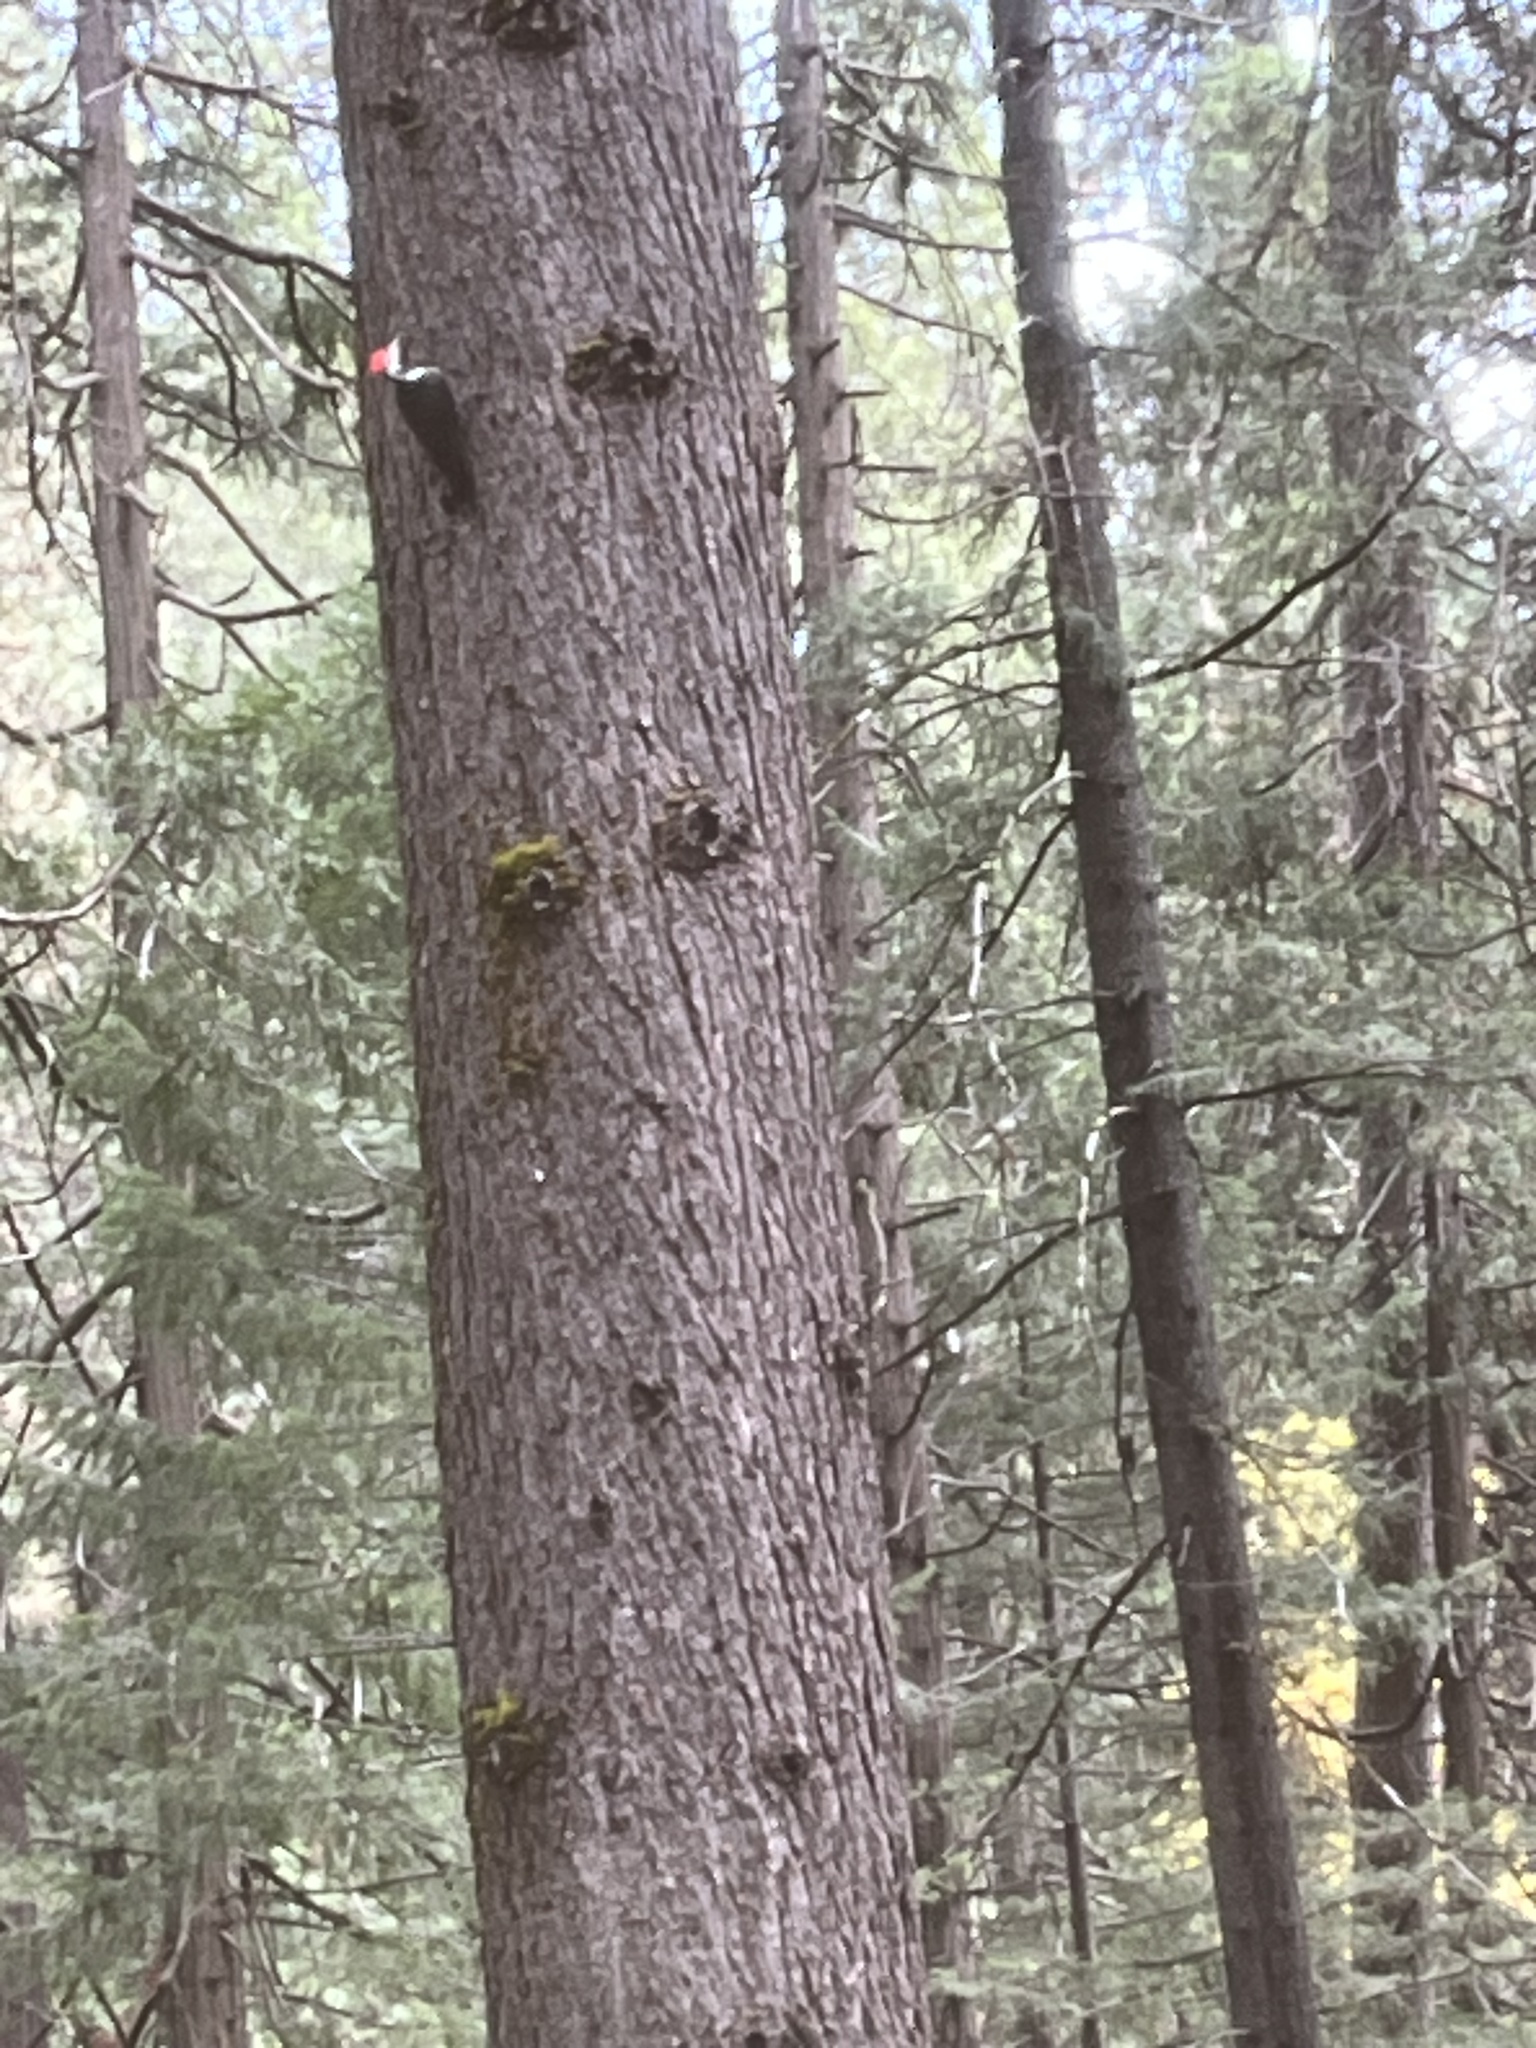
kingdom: Animalia
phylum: Chordata
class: Aves
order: Piciformes
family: Picidae
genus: Dryocopus
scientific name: Dryocopus pileatus
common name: Pileated woodpecker
